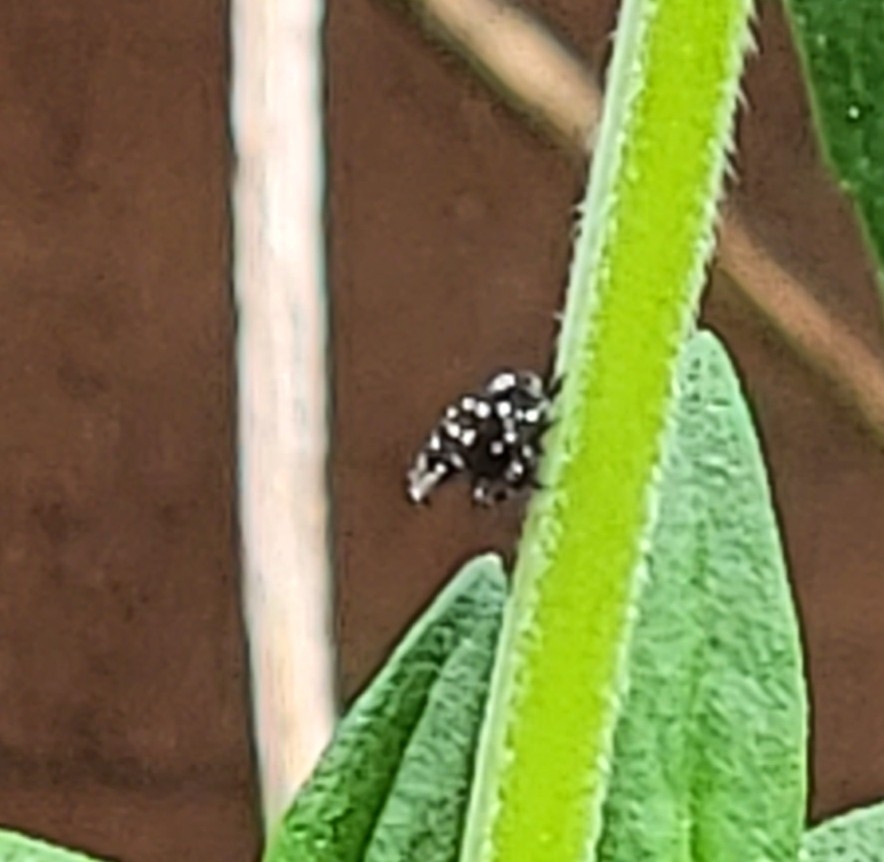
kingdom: Animalia
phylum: Arthropoda
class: Insecta
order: Hemiptera
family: Fulgoridae
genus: Lycorma
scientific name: Lycorma delicatula
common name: Spotted lanternfly
